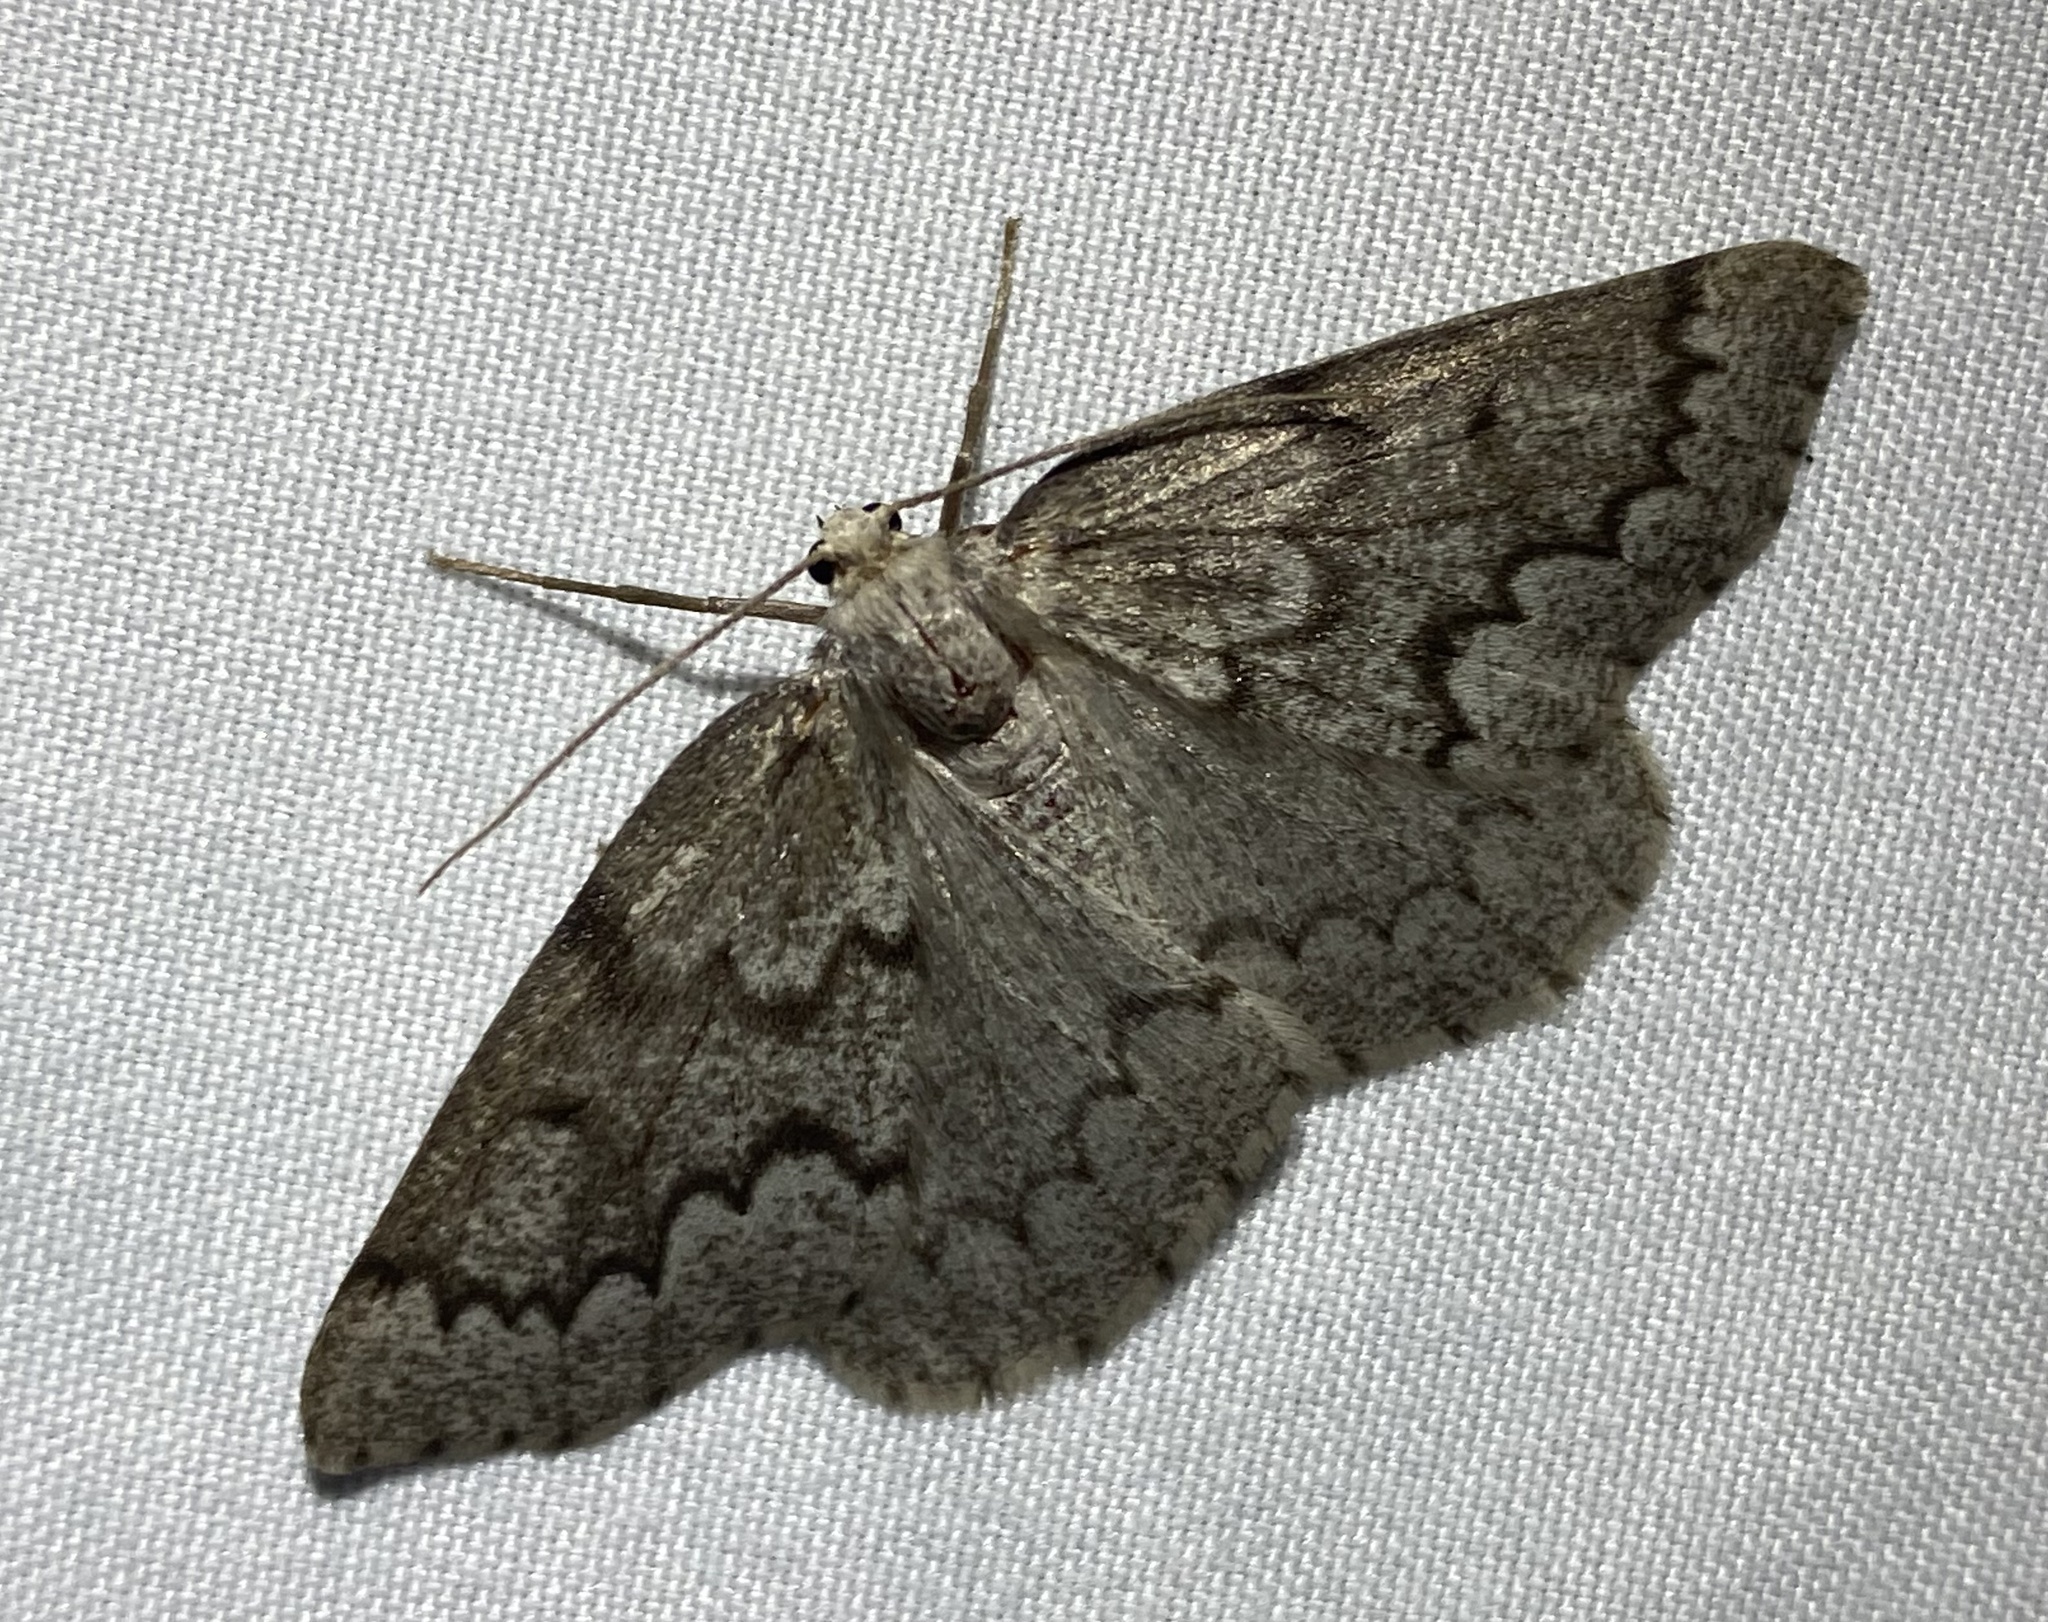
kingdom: Animalia
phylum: Arthropoda
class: Insecta
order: Lepidoptera
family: Geometridae
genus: Nepytia
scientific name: Nepytia semiclusaria
